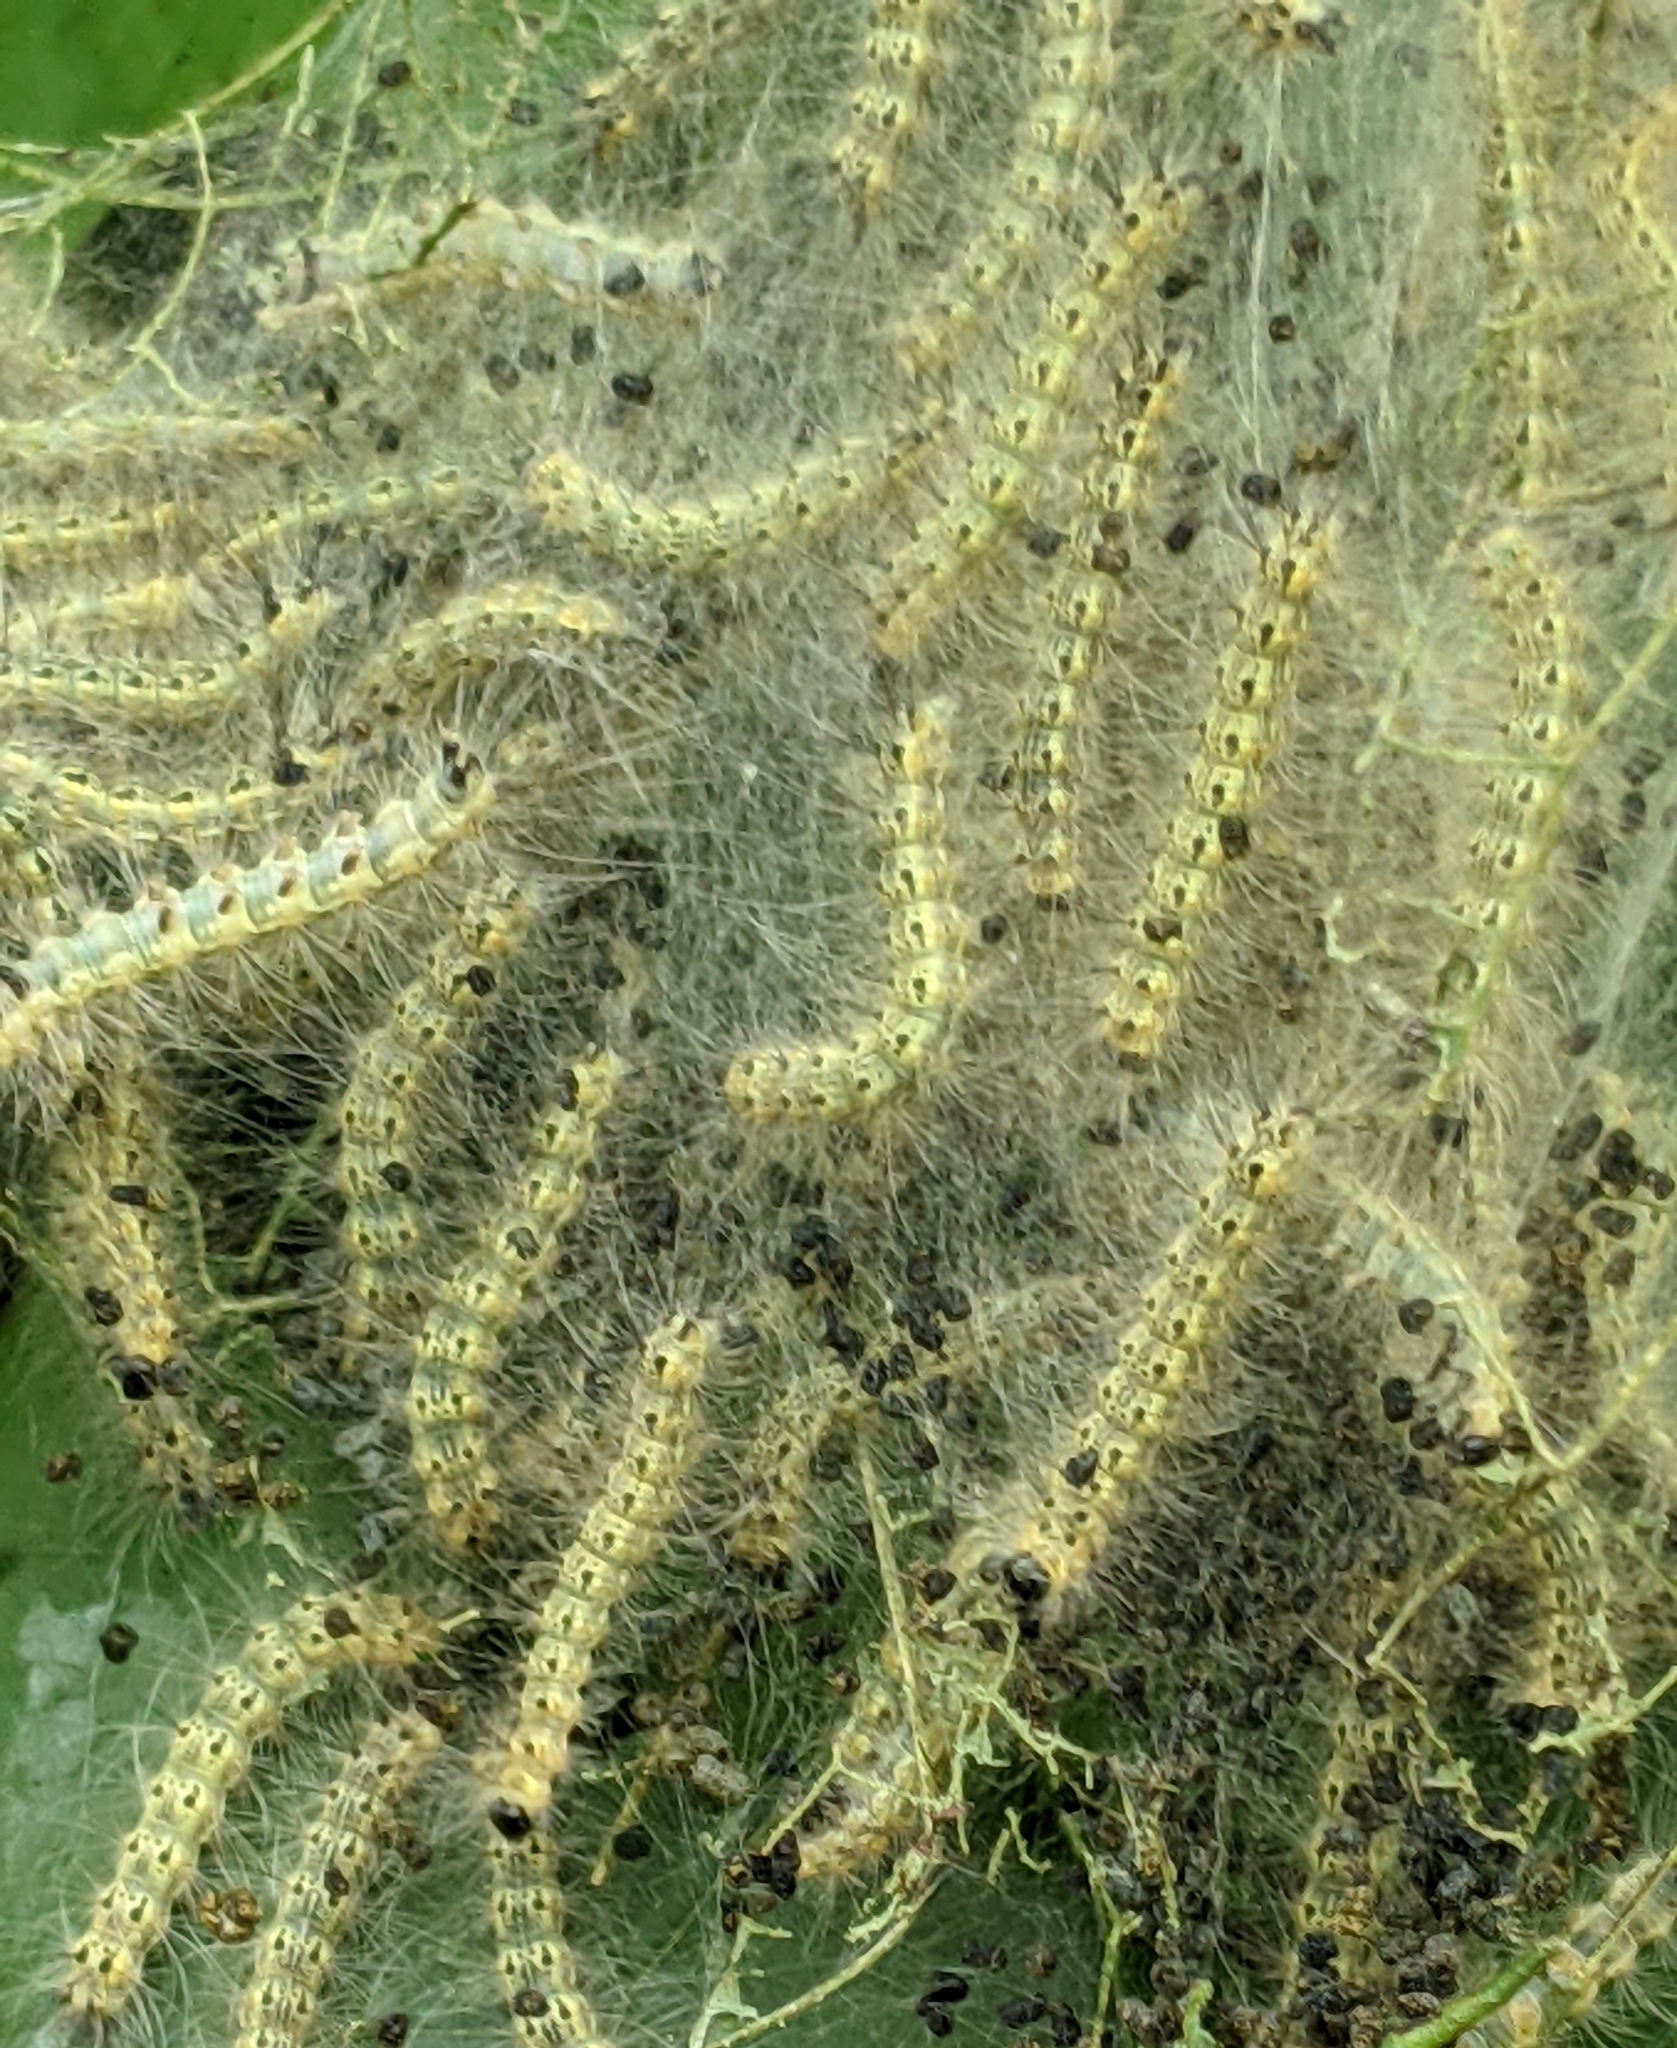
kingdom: Animalia
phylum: Arthropoda
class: Insecta
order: Lepidoptera
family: Erebidae
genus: Hyphantria
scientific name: Hyphantria cunea
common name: American white moth
